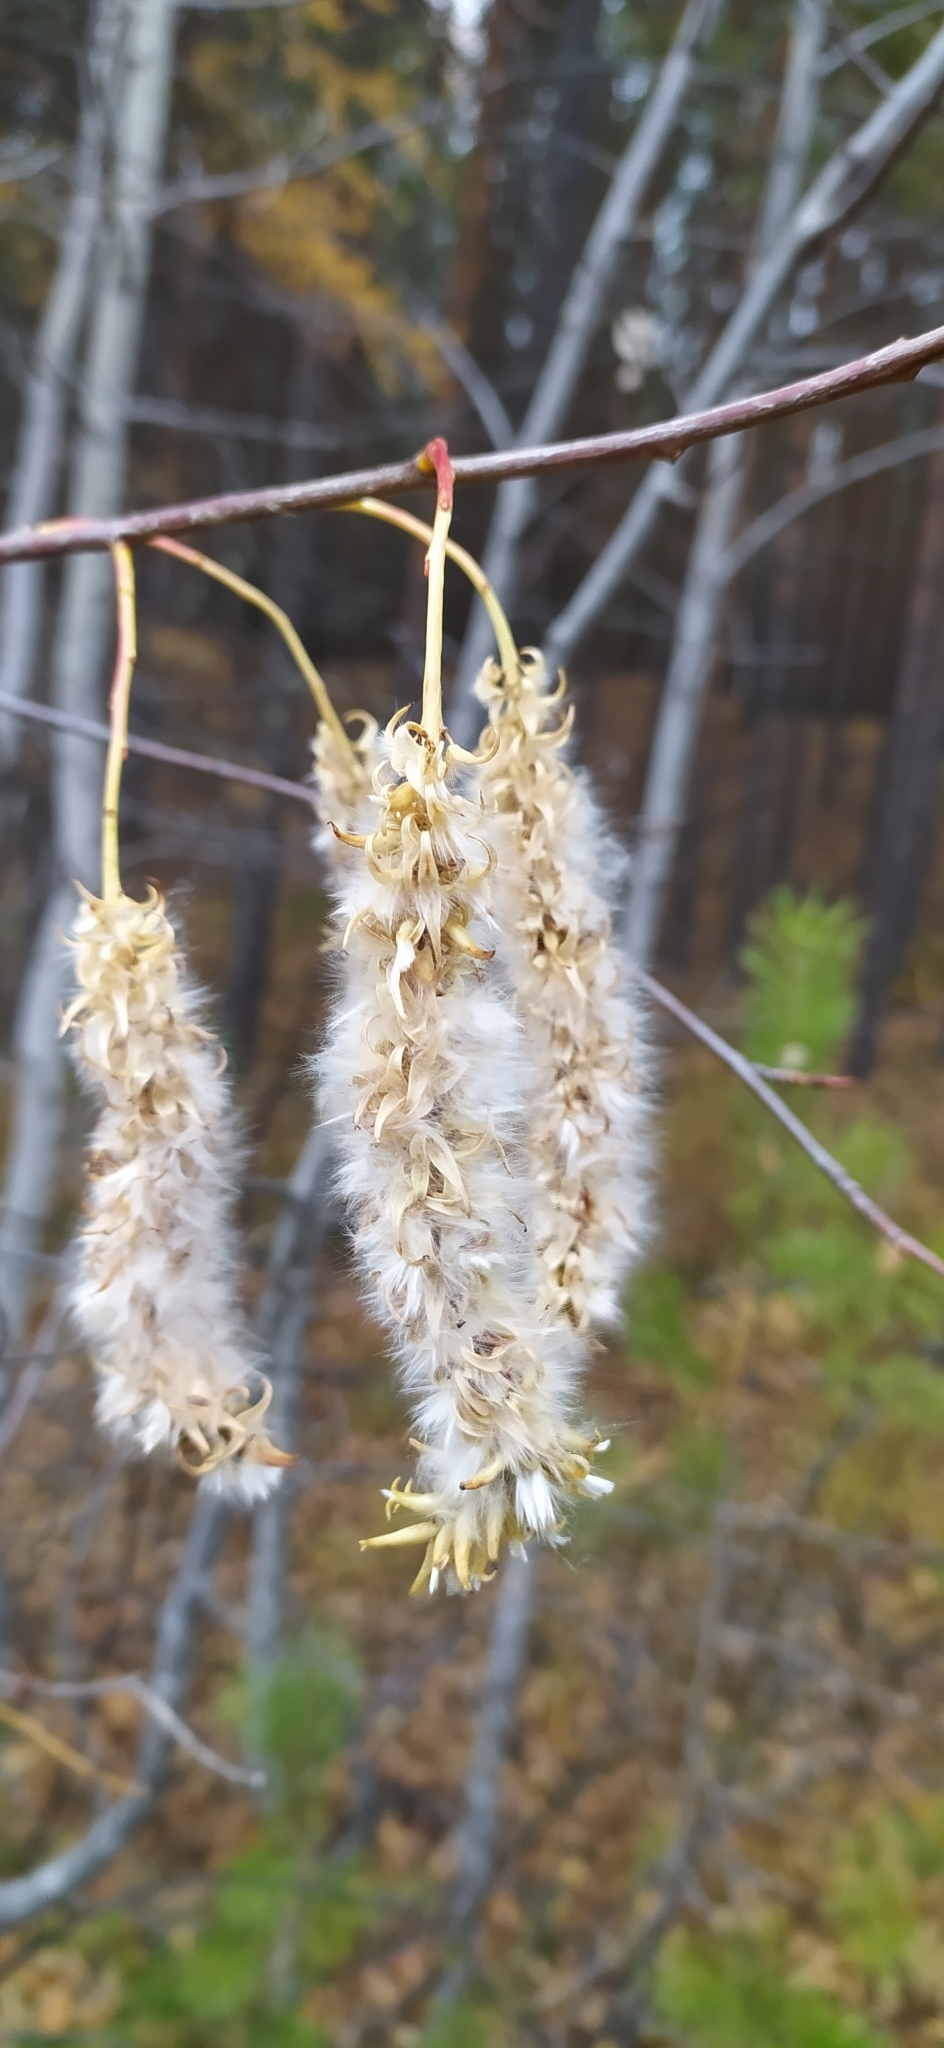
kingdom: Plantae
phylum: Tracheophyta
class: Magnoliopsida
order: Malpighiales
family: Salicaceae
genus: Salix
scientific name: Salix pentandra
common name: Bay willow
